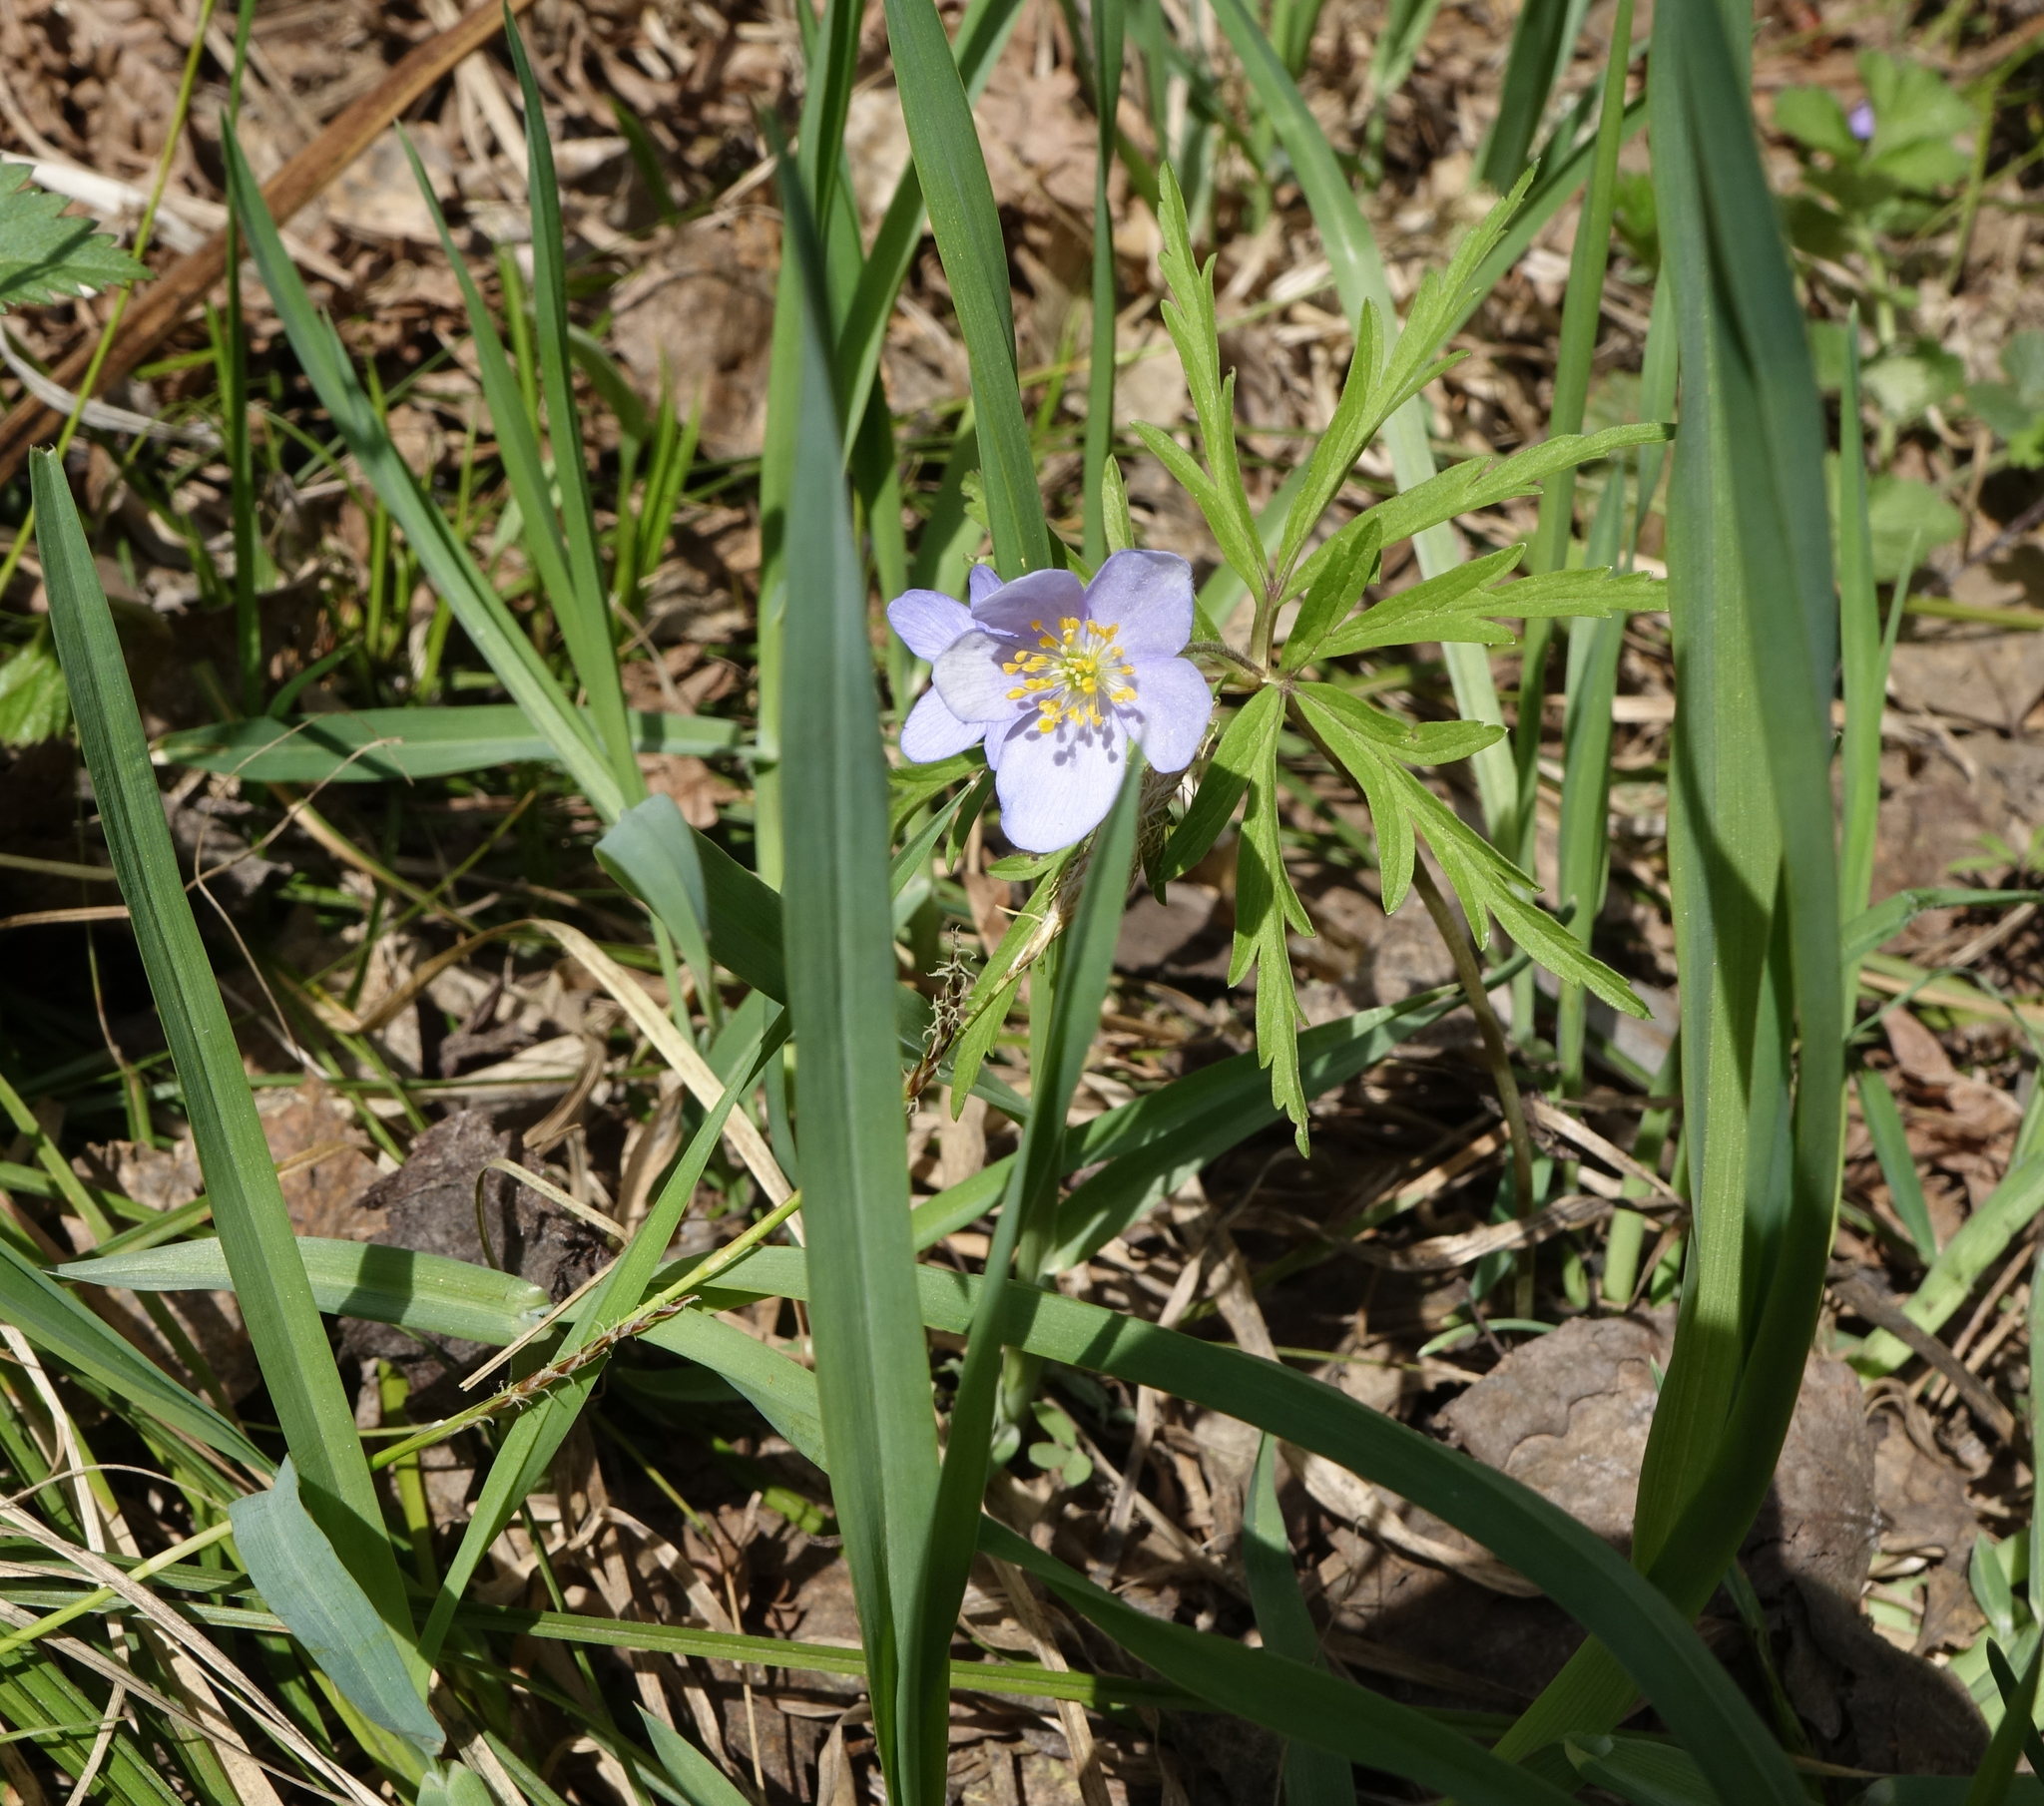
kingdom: Plantae
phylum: Tracheophyta
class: Magnoliopsida
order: Ranunculales
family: Ranunculaceae
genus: Anemone
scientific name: Anemone caerulea
